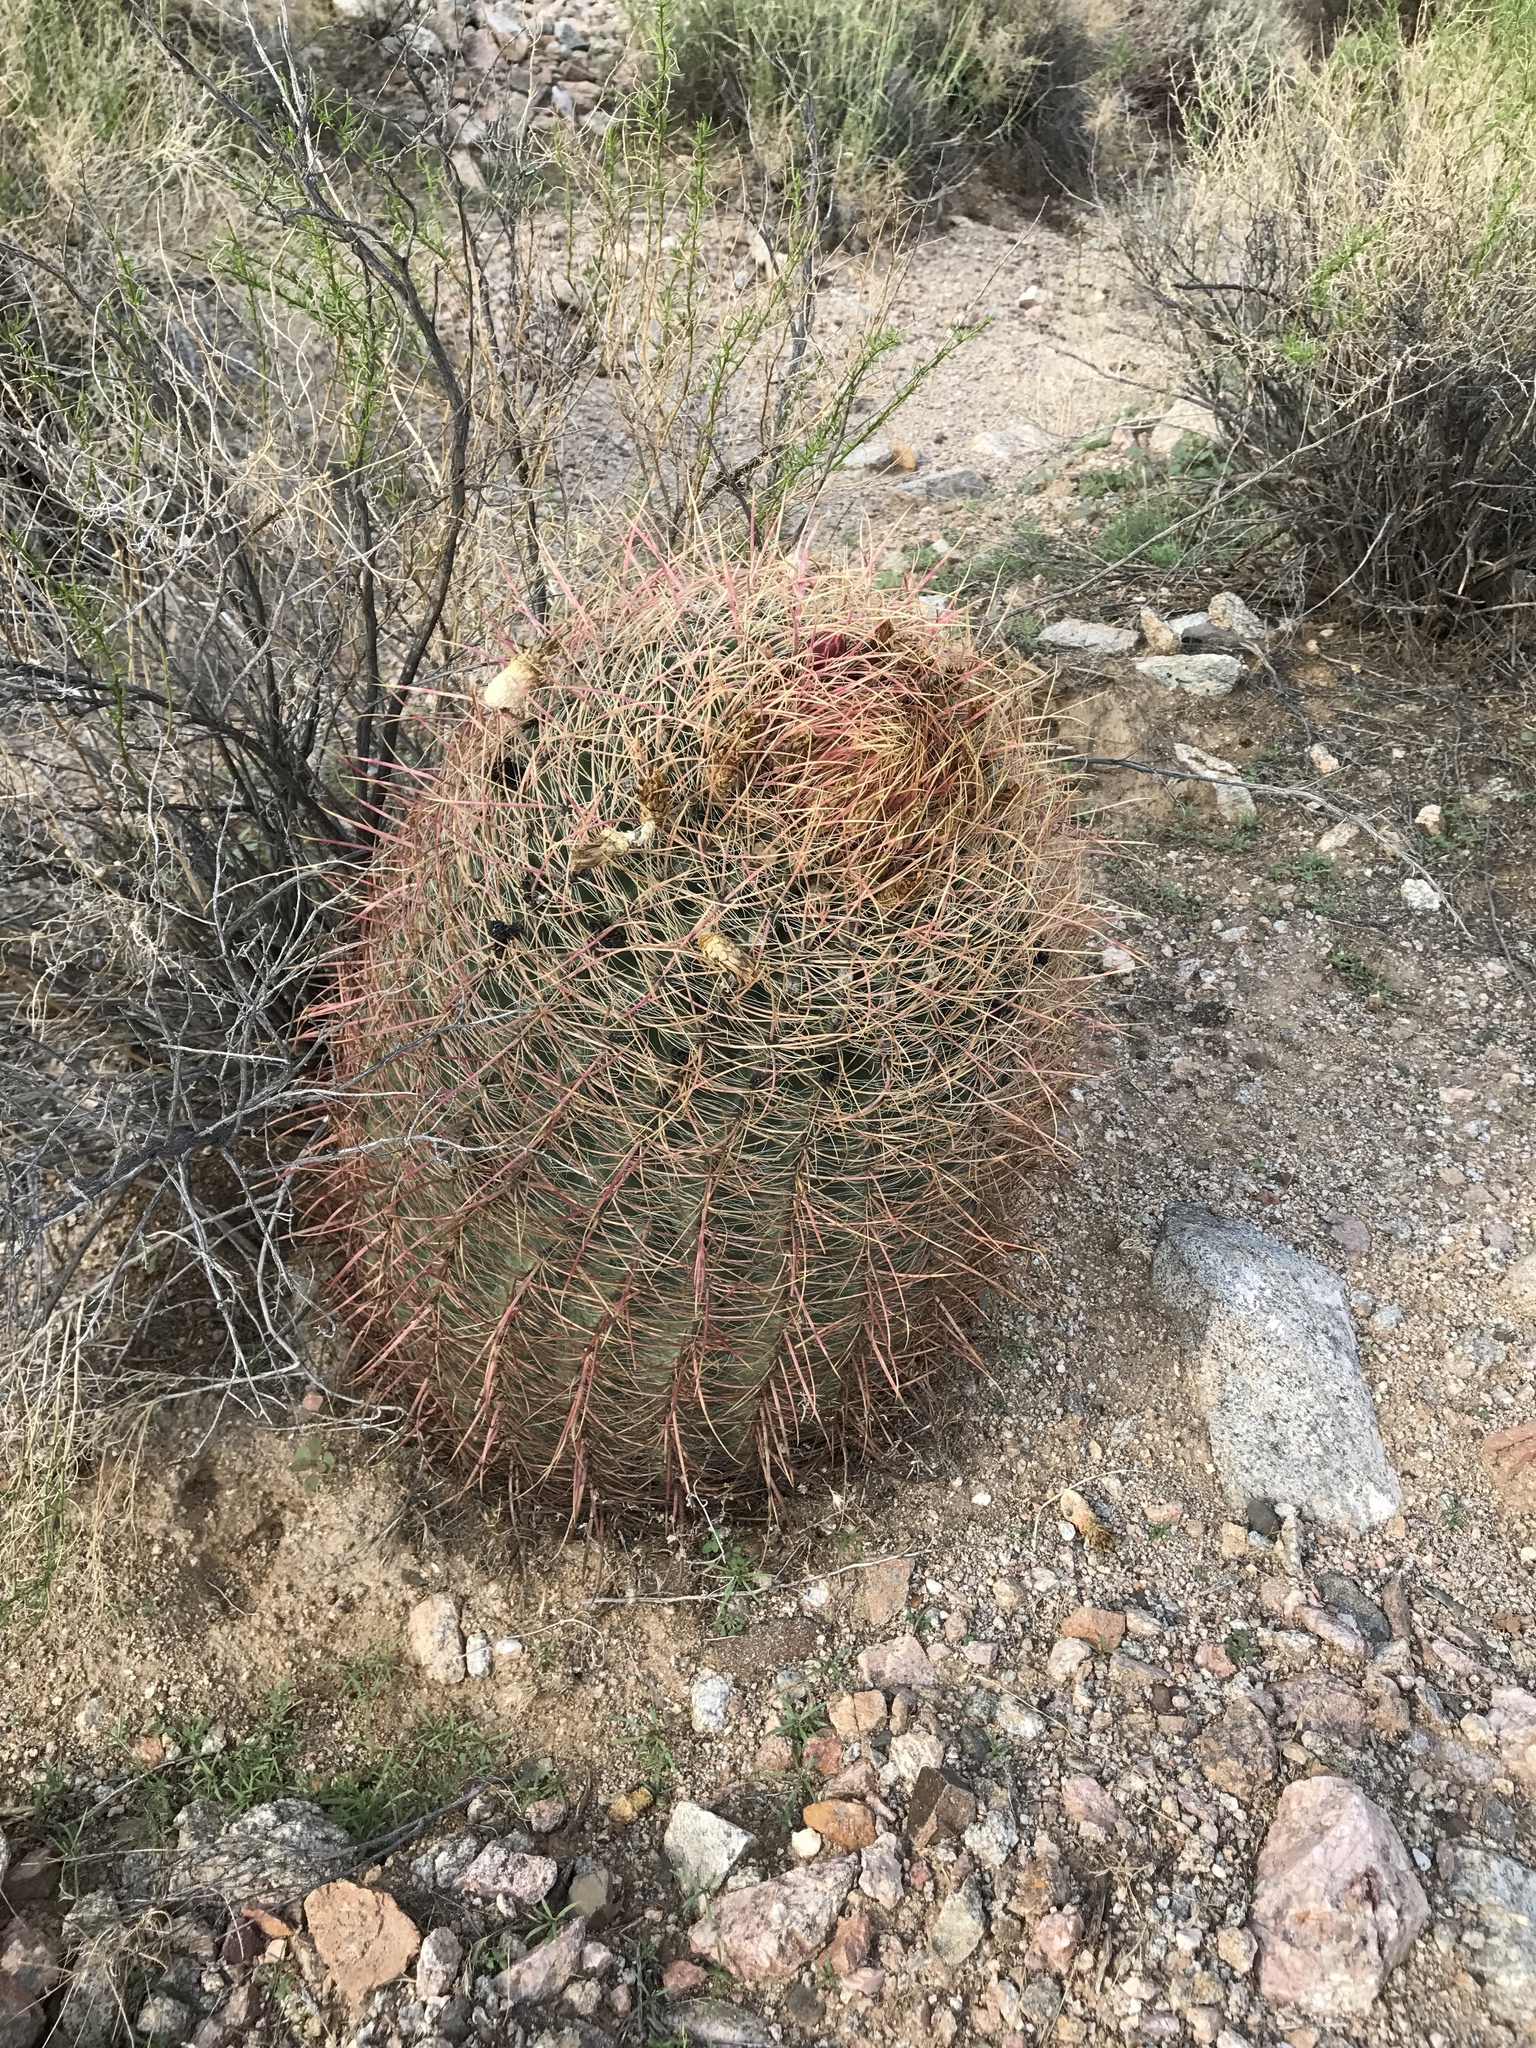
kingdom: Plantae
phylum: Tracheophyta
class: Magnoliopsida
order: Caryophyllales
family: Cactaceae
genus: Ferocactus
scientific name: Ferocactus cylindraceus
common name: California barrel cactus
